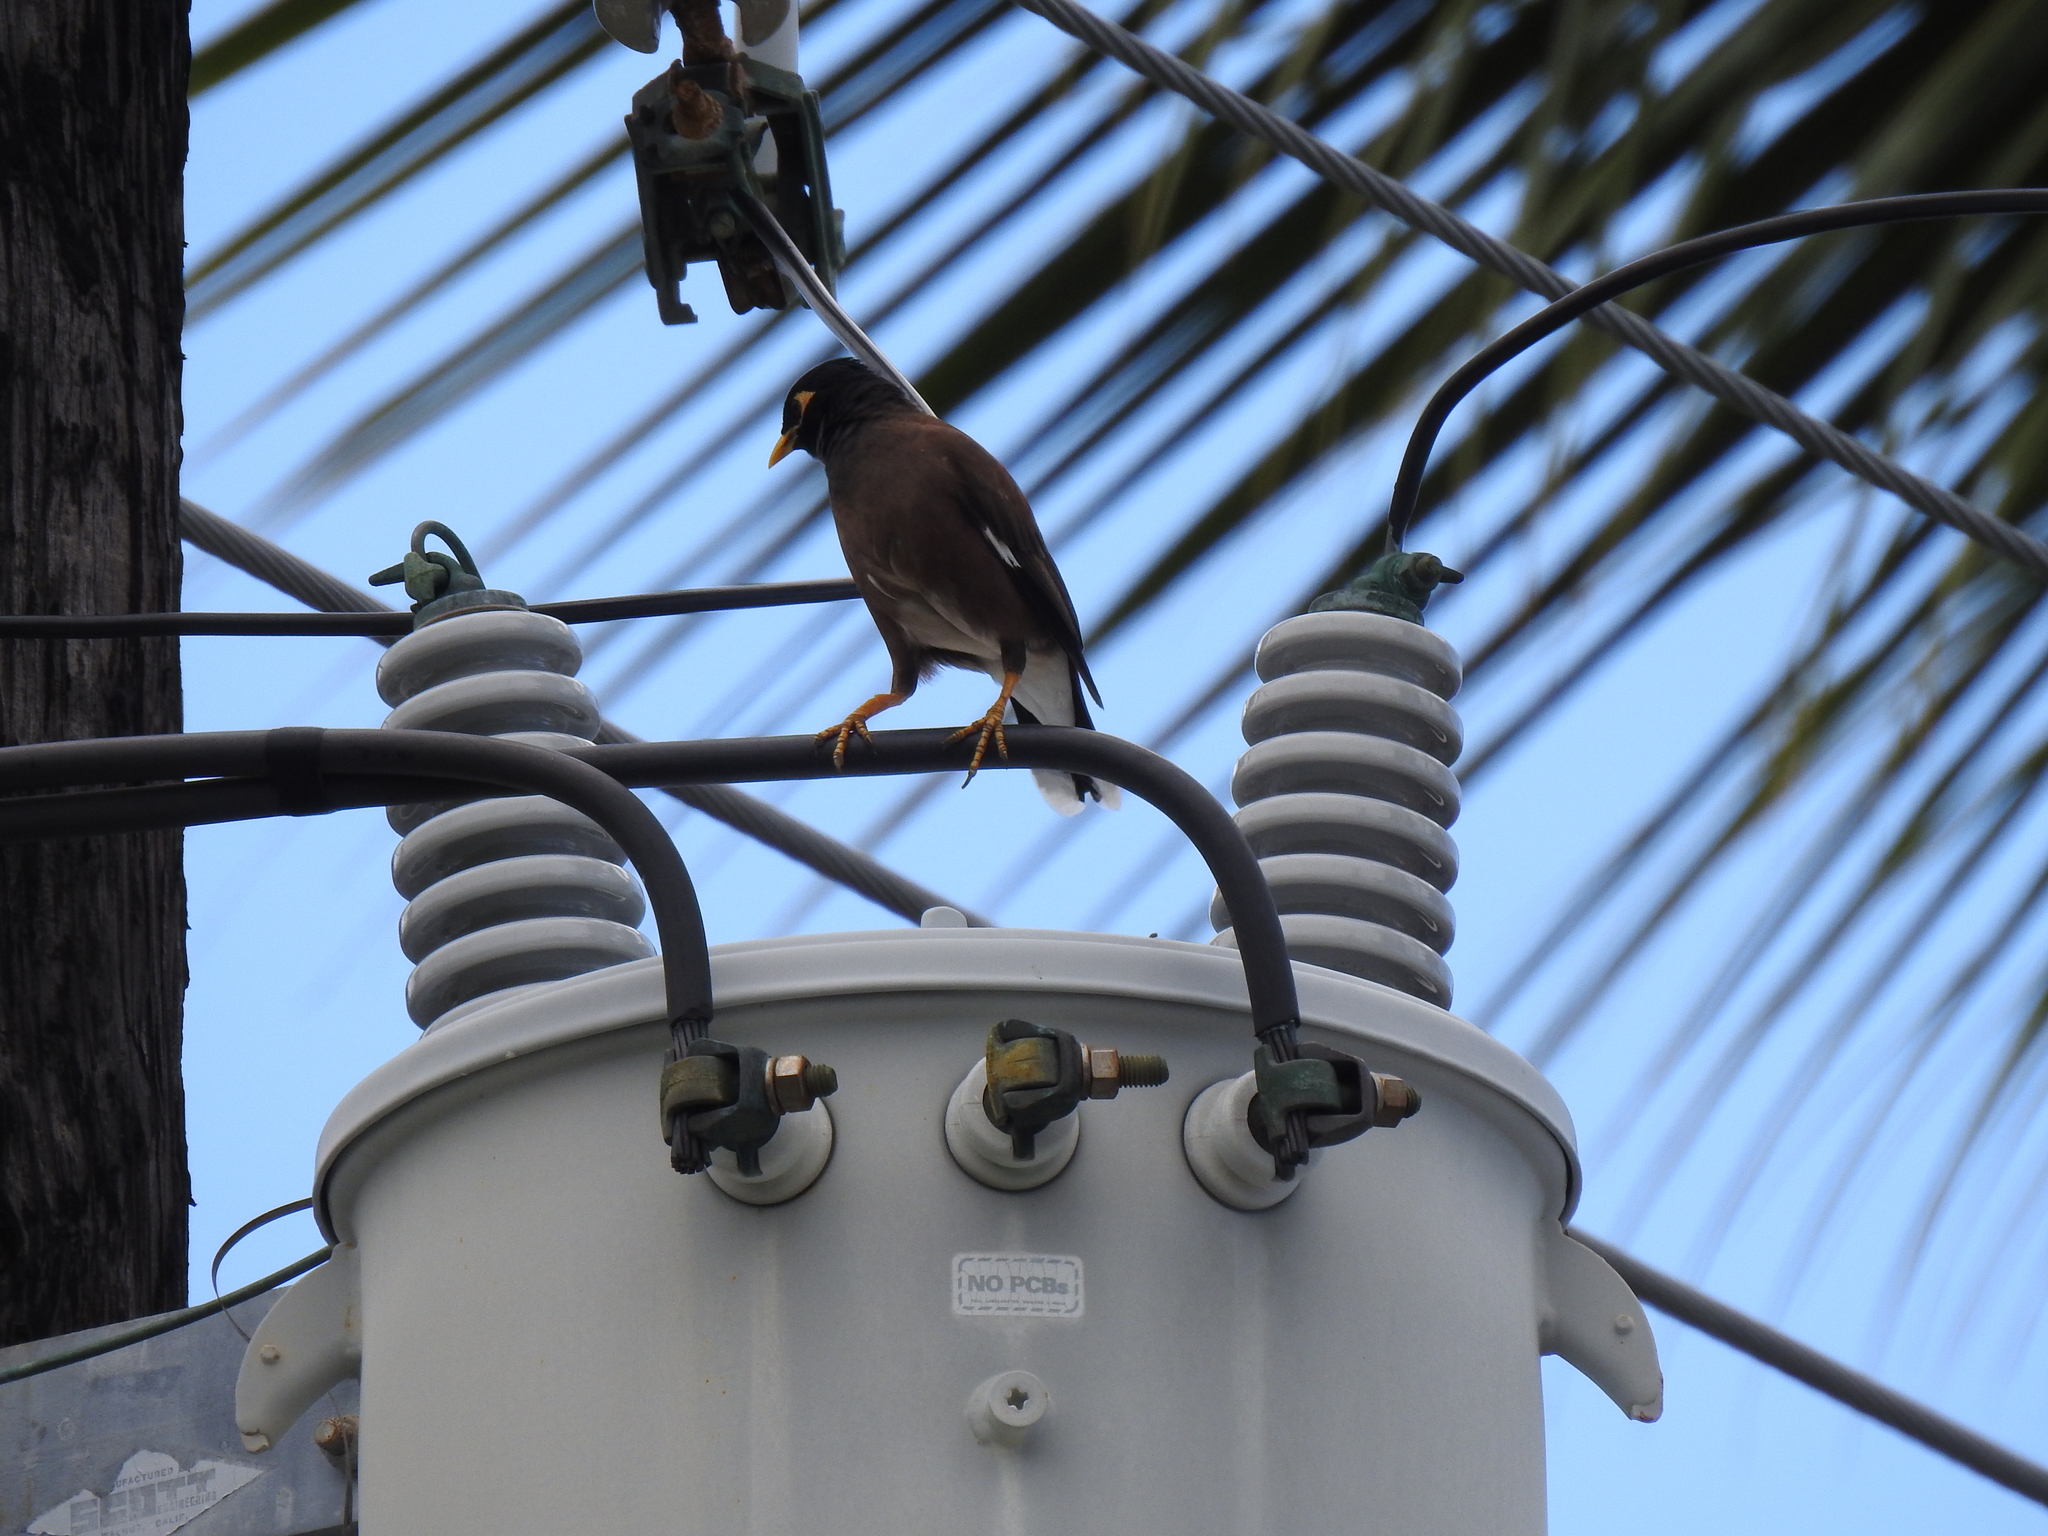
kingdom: Animalia
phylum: Chordata
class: Aves
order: Passeriformes
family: Sturnidae
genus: Acridotheres
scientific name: Acridotheres tristis
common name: Common myna
